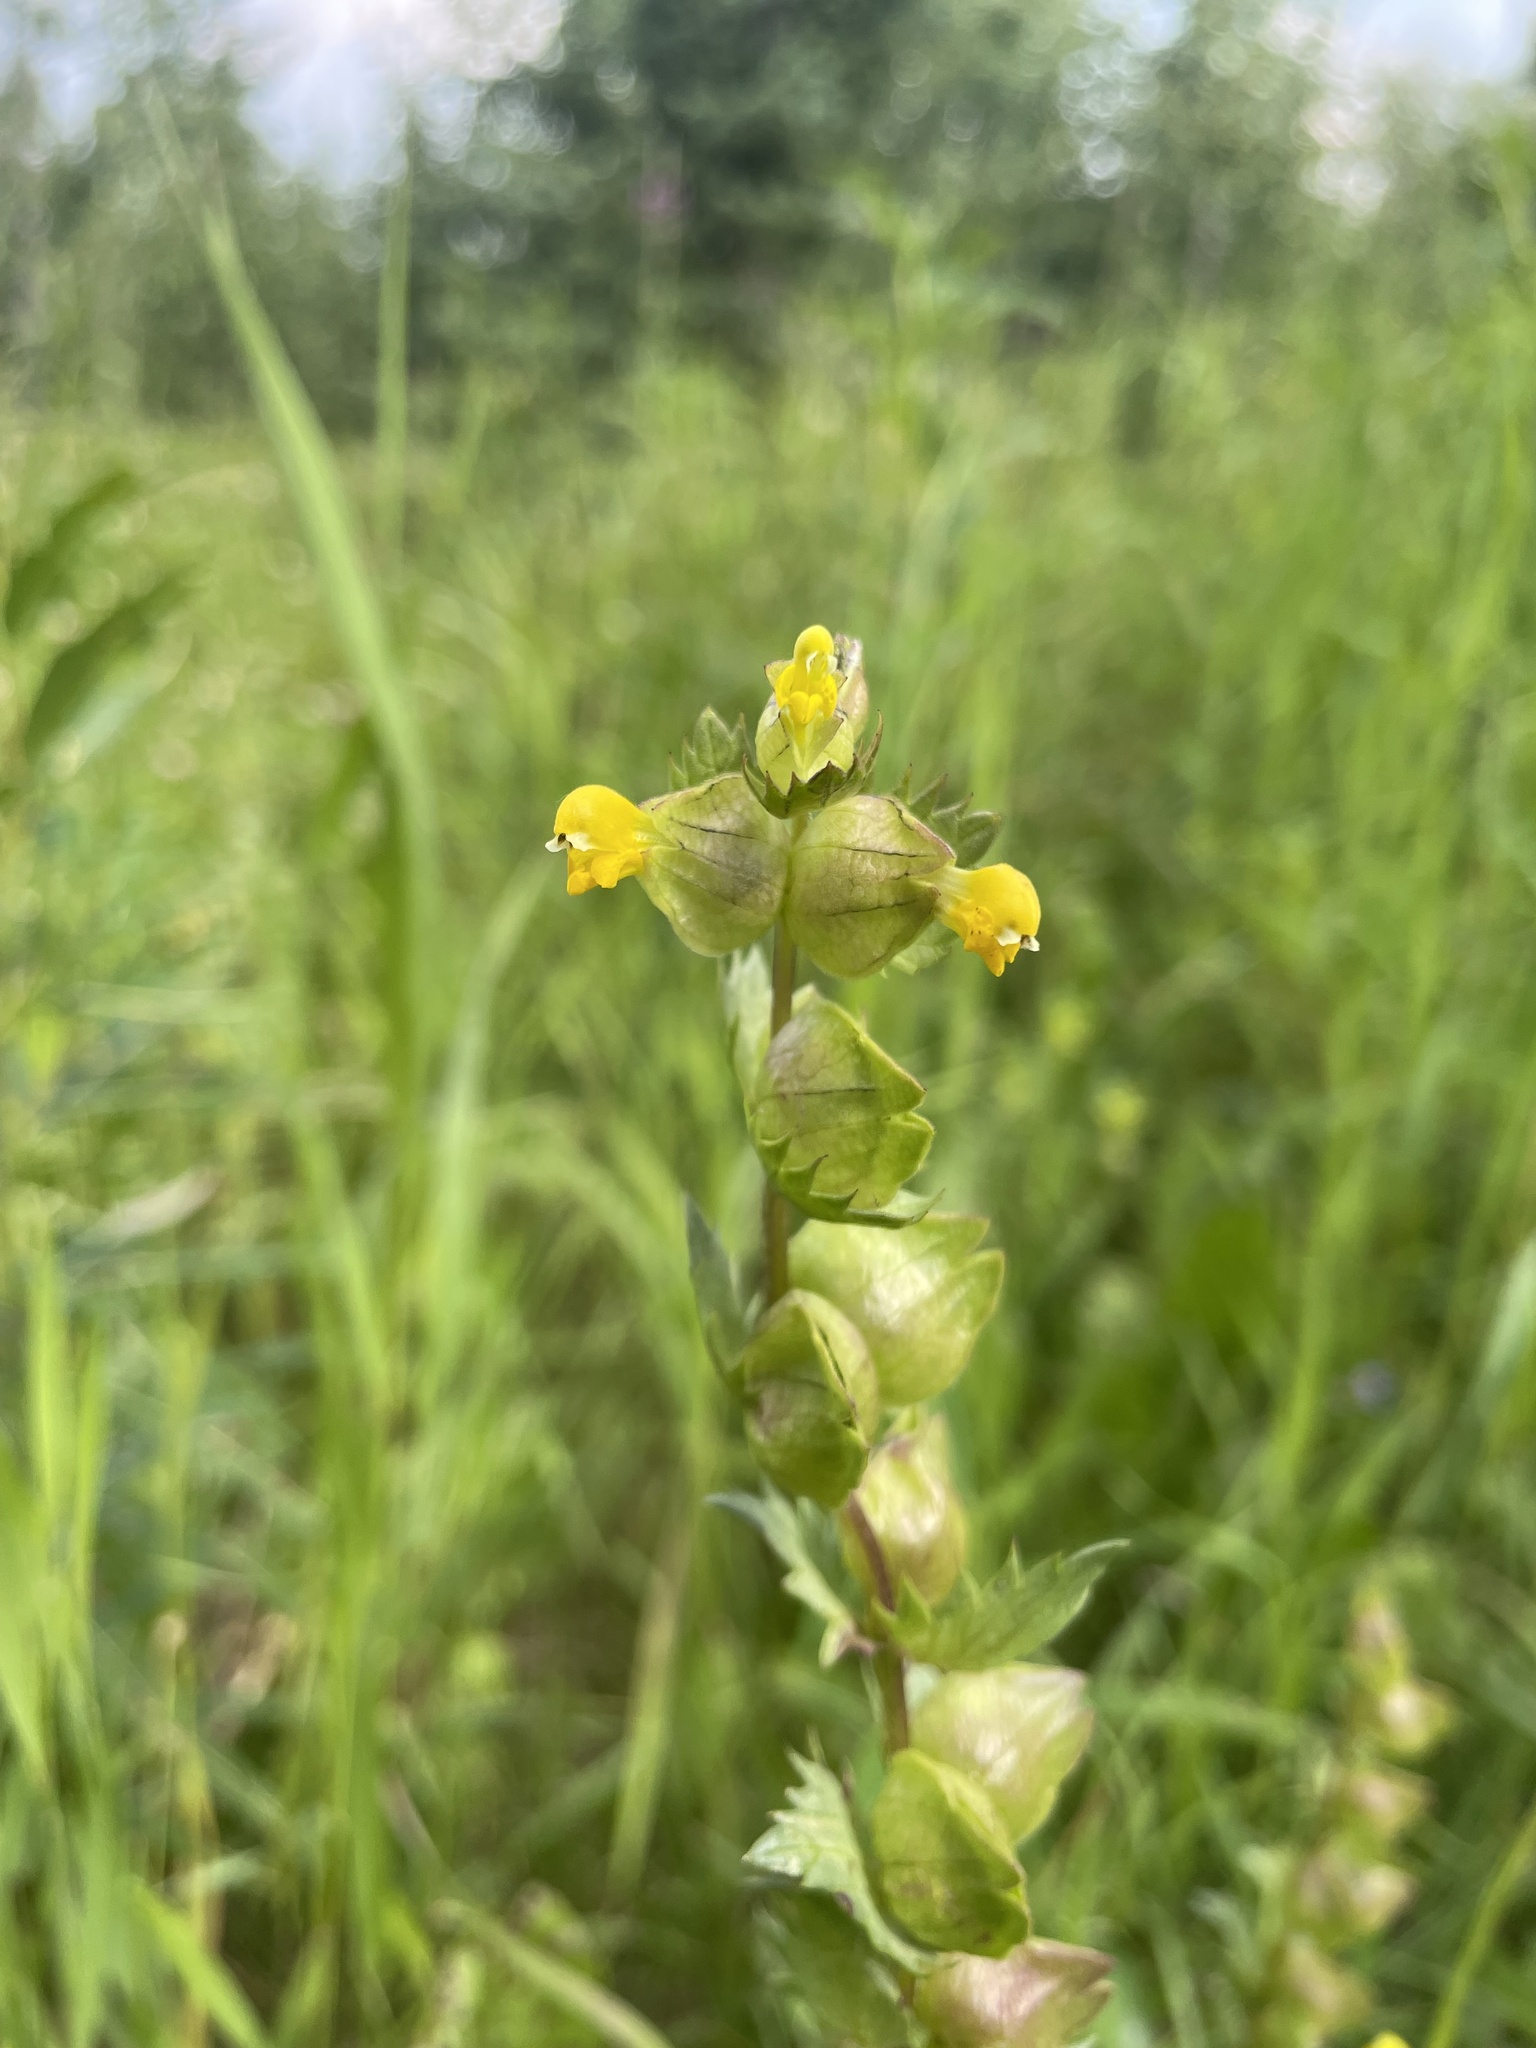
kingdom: Plantae
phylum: Tracheophyta
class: Magnoliopsida
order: Lamiales
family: Orobanchaceae
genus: Rhinanthus
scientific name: Rhinanthus groenlandicus
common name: Little yellow rattle
